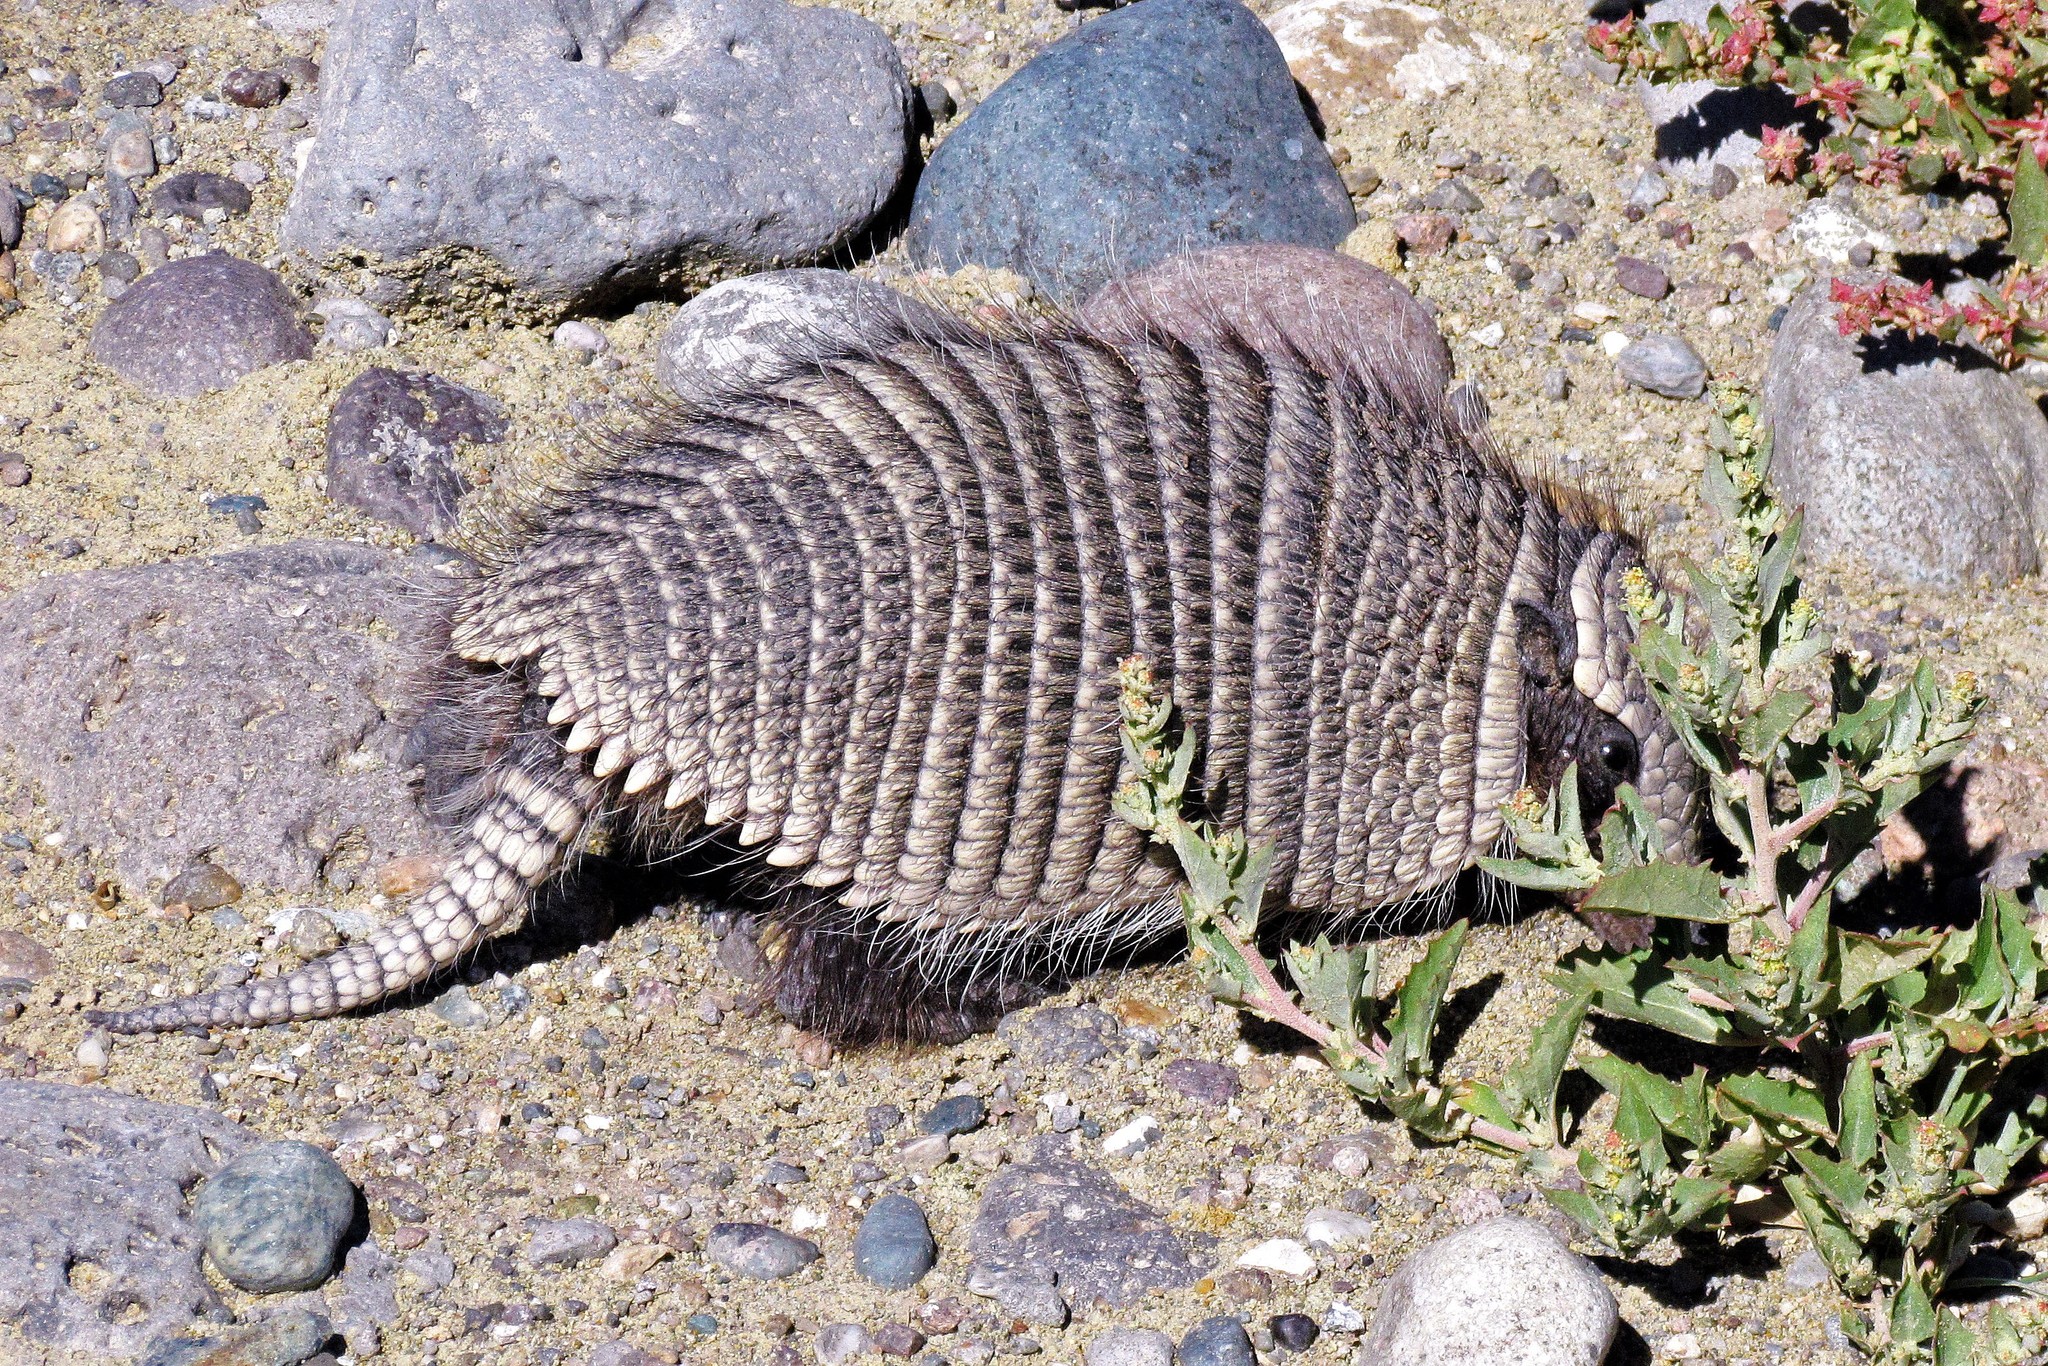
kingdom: Animalia
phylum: Chordata
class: Mammalia
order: Cingulata
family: Dasypodidae
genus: Zaedyus
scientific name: Zaedyus pichiy
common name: Pichi
